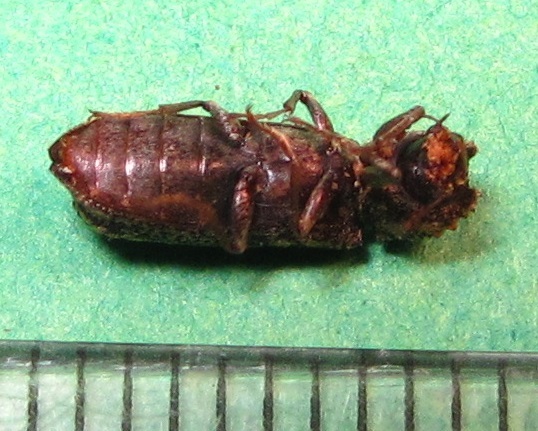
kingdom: Animalia
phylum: Arthropoda
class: Insecta
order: Coleoptera
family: Bostrichidae
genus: Lichenophanes
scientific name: Lichenophanes bicornis
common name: Two-horned powder-post beetle
